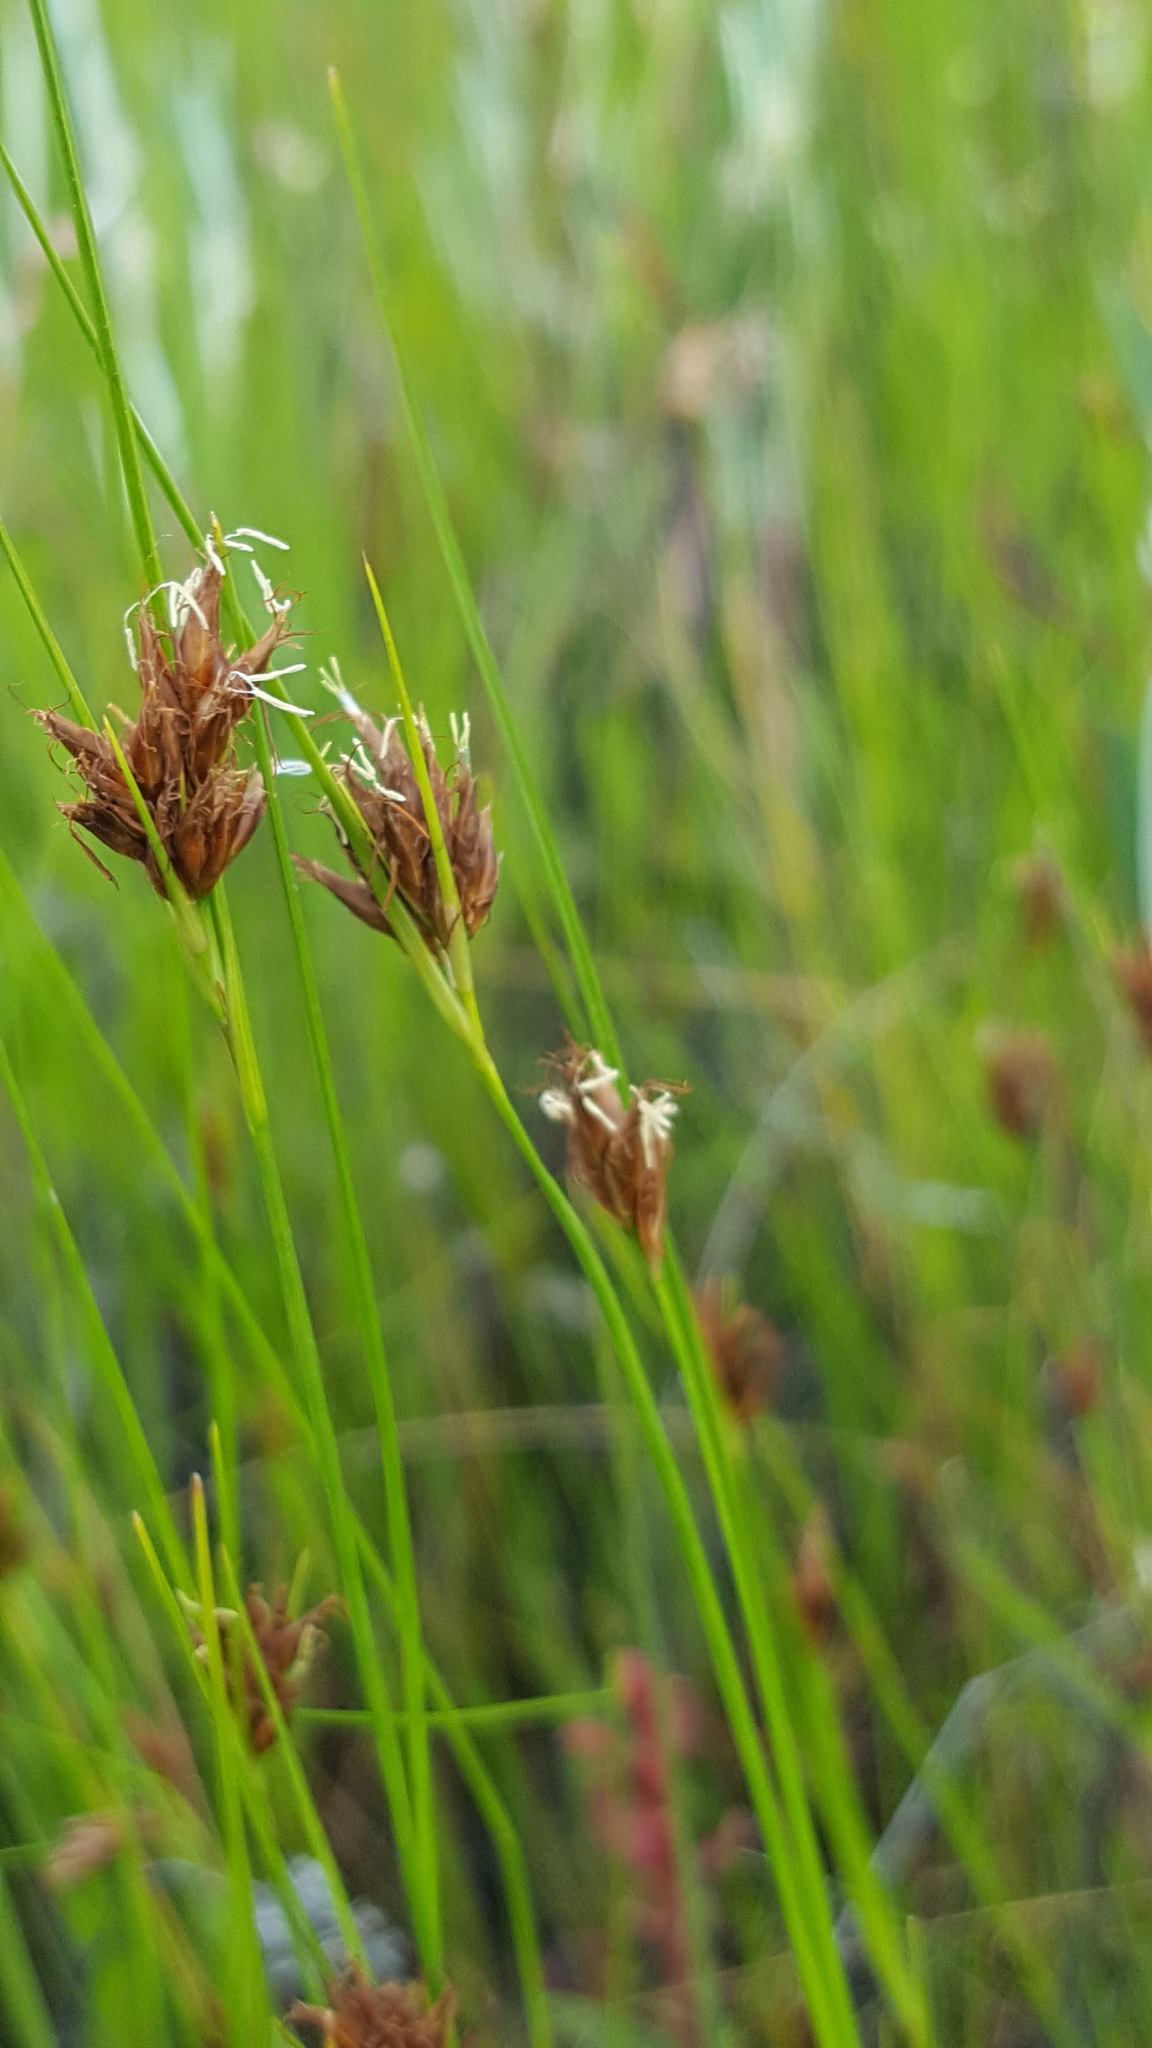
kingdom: Plantae
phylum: Tracheophyta
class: Liliopsida
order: Poales
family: Cyperaceae
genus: Rhynchospora
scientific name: Rhynchospora fusca
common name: Brown beak-sedge
